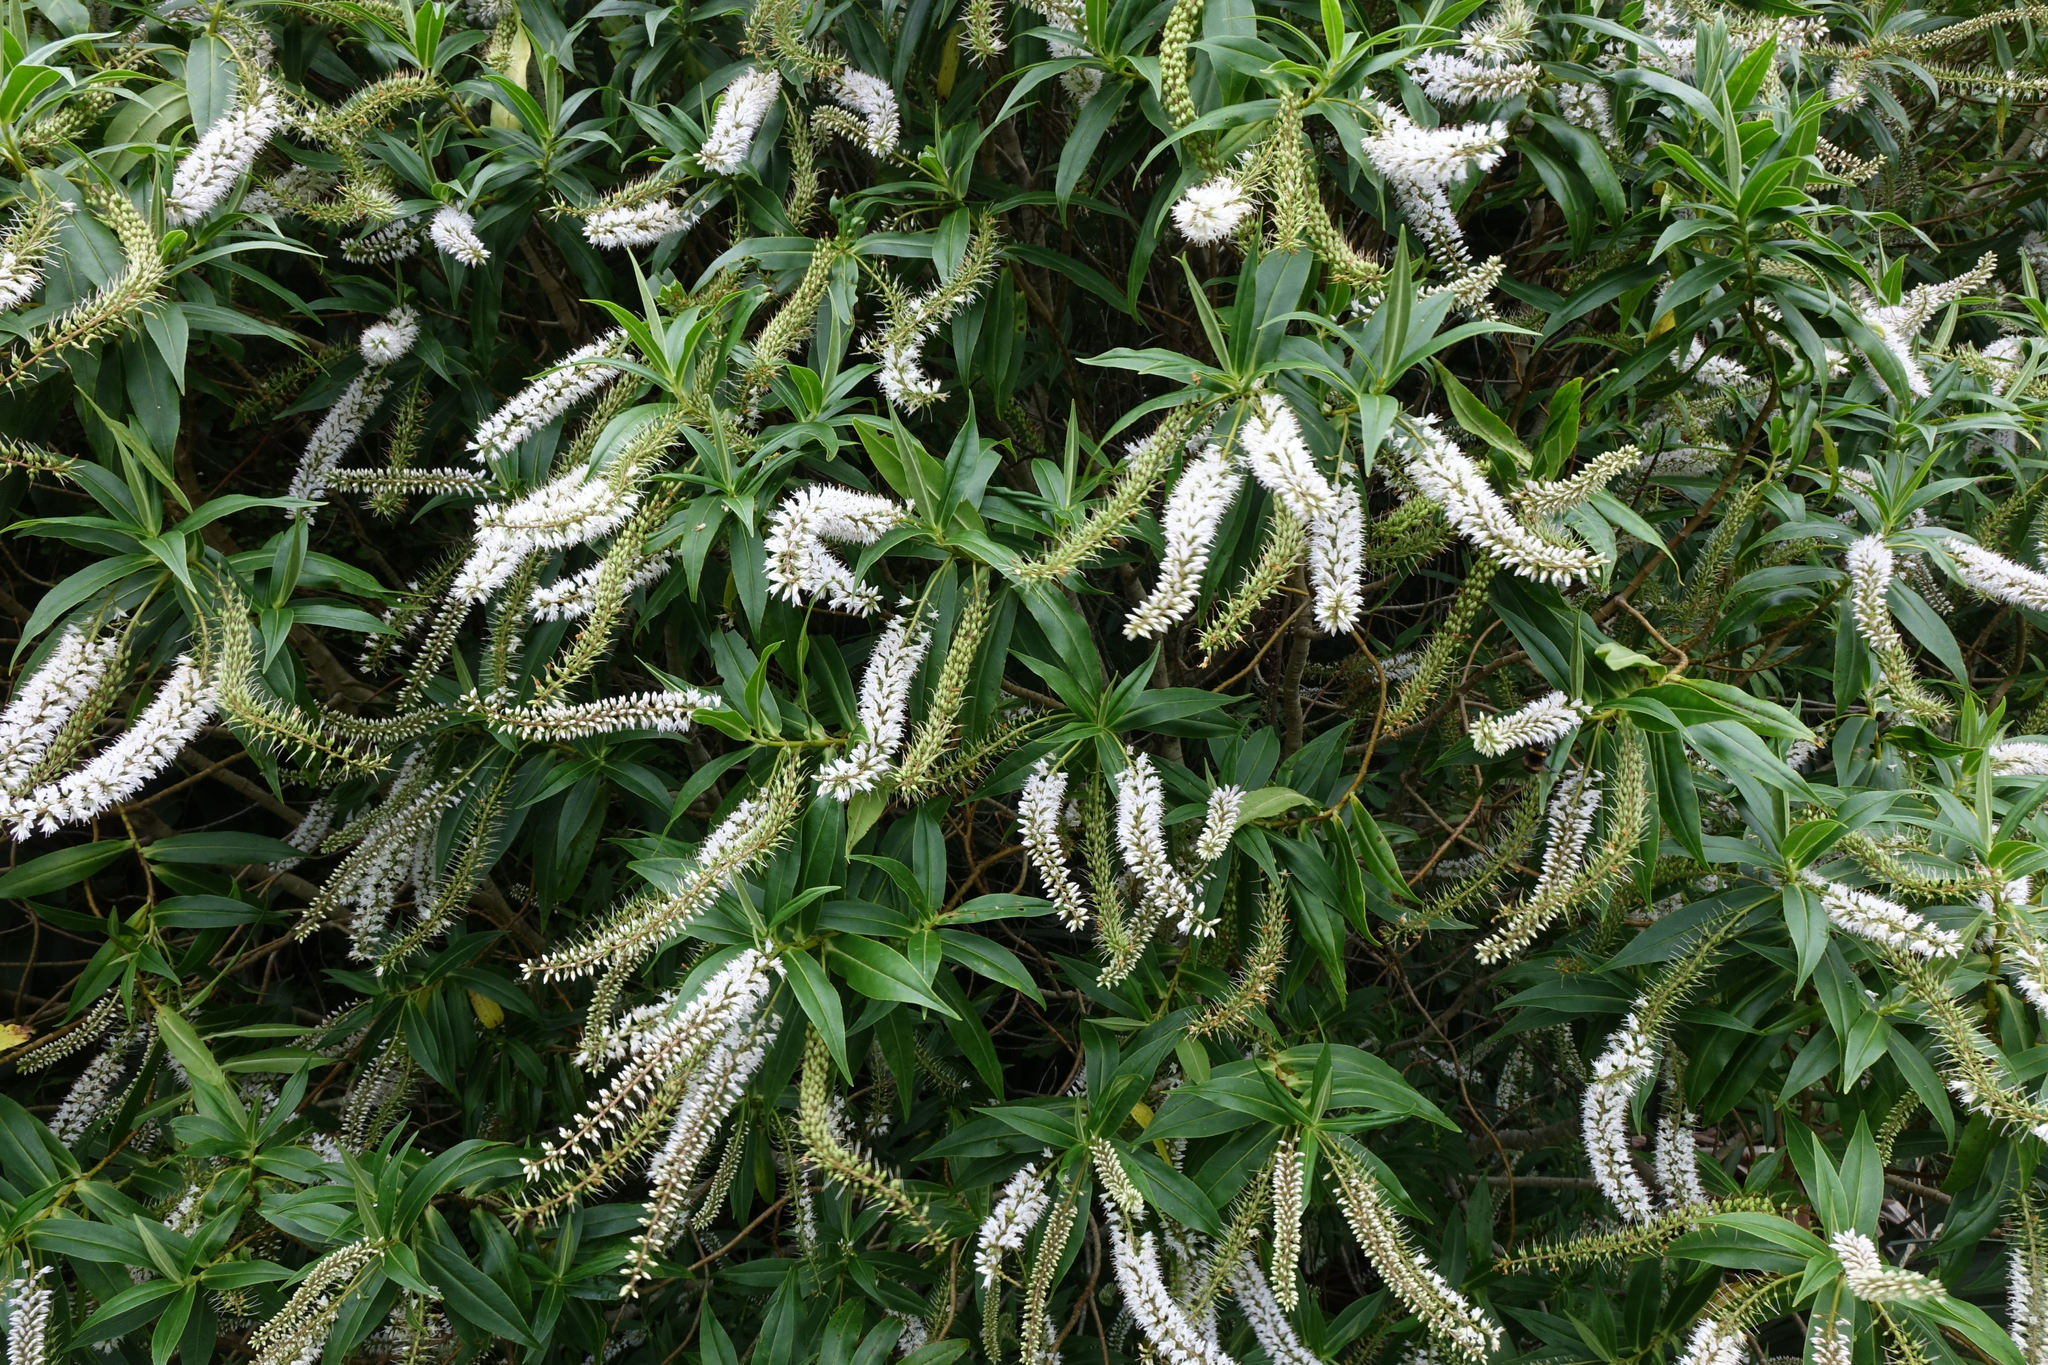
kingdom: Plantae
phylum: Tracheophyta
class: Magnoliopsida
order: Lamiales
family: Plantaginaceae
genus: Veronica
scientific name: Veronica salicifolia
